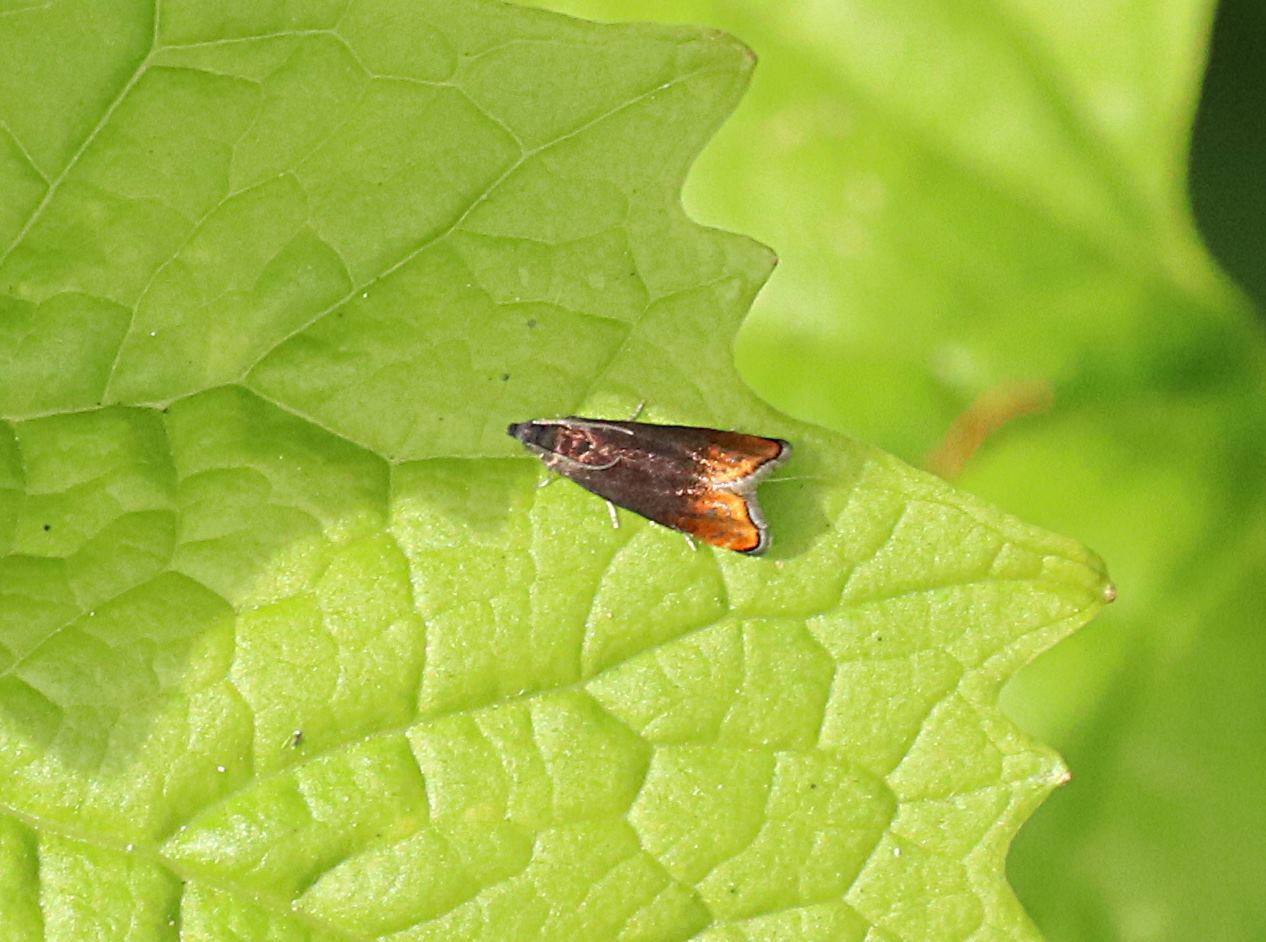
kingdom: Animalia
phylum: Arthropoda
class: Insecta
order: Lepidoptera
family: Tortricidae
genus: Pammene
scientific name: Pammene rhediella
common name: Fruitlet-mining tortrix
